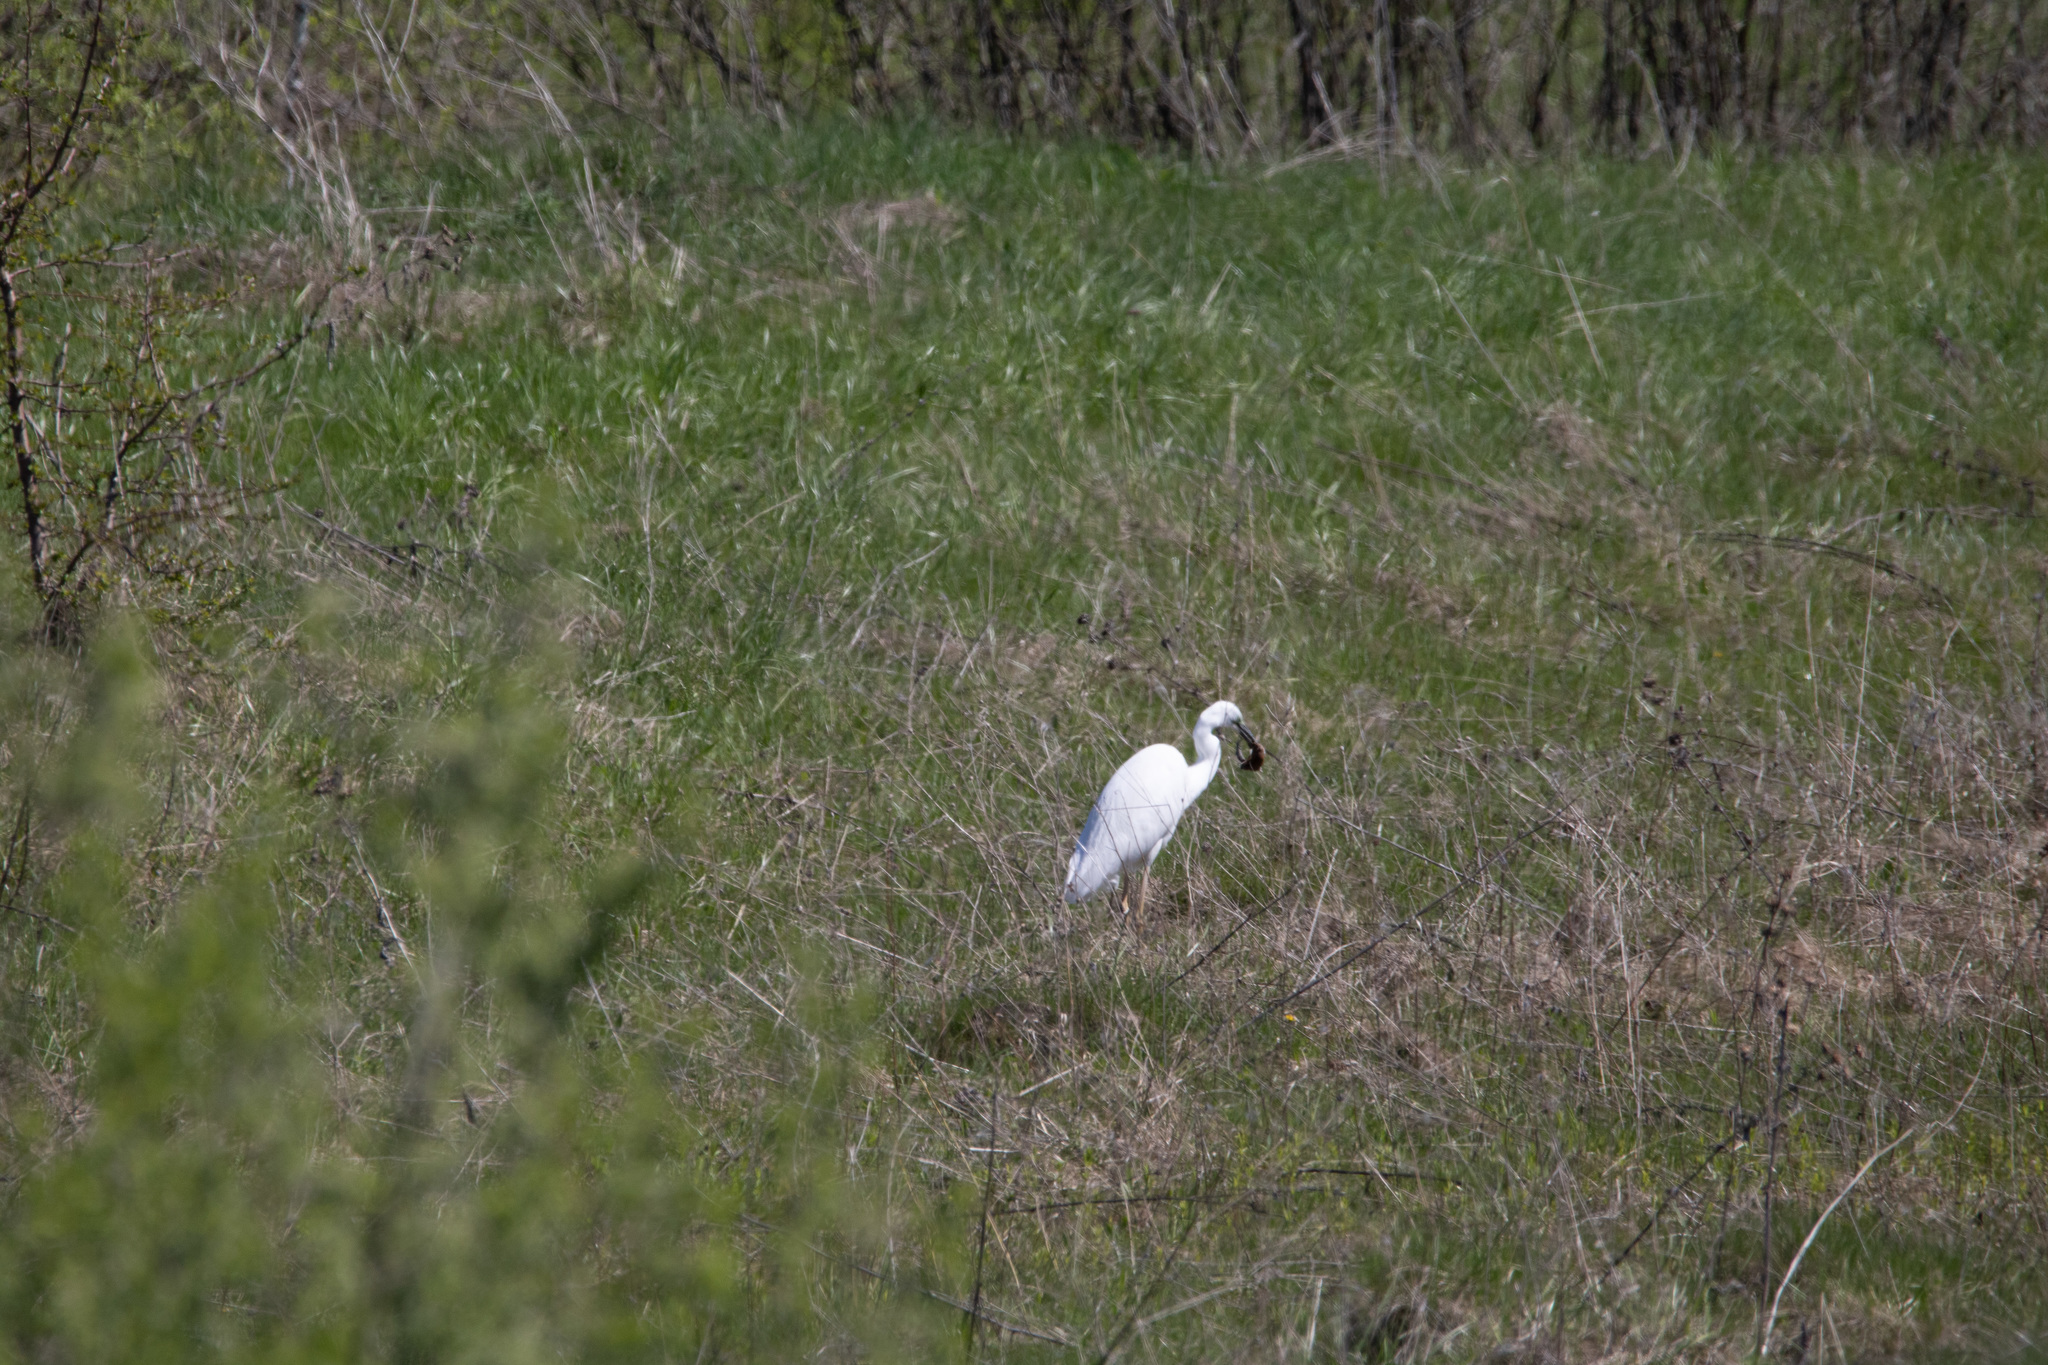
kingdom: Animalia
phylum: Chordata
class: Aves
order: Pelecaniformes
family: Ardeidae
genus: Ardea
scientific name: Ardea alba
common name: Great egret
